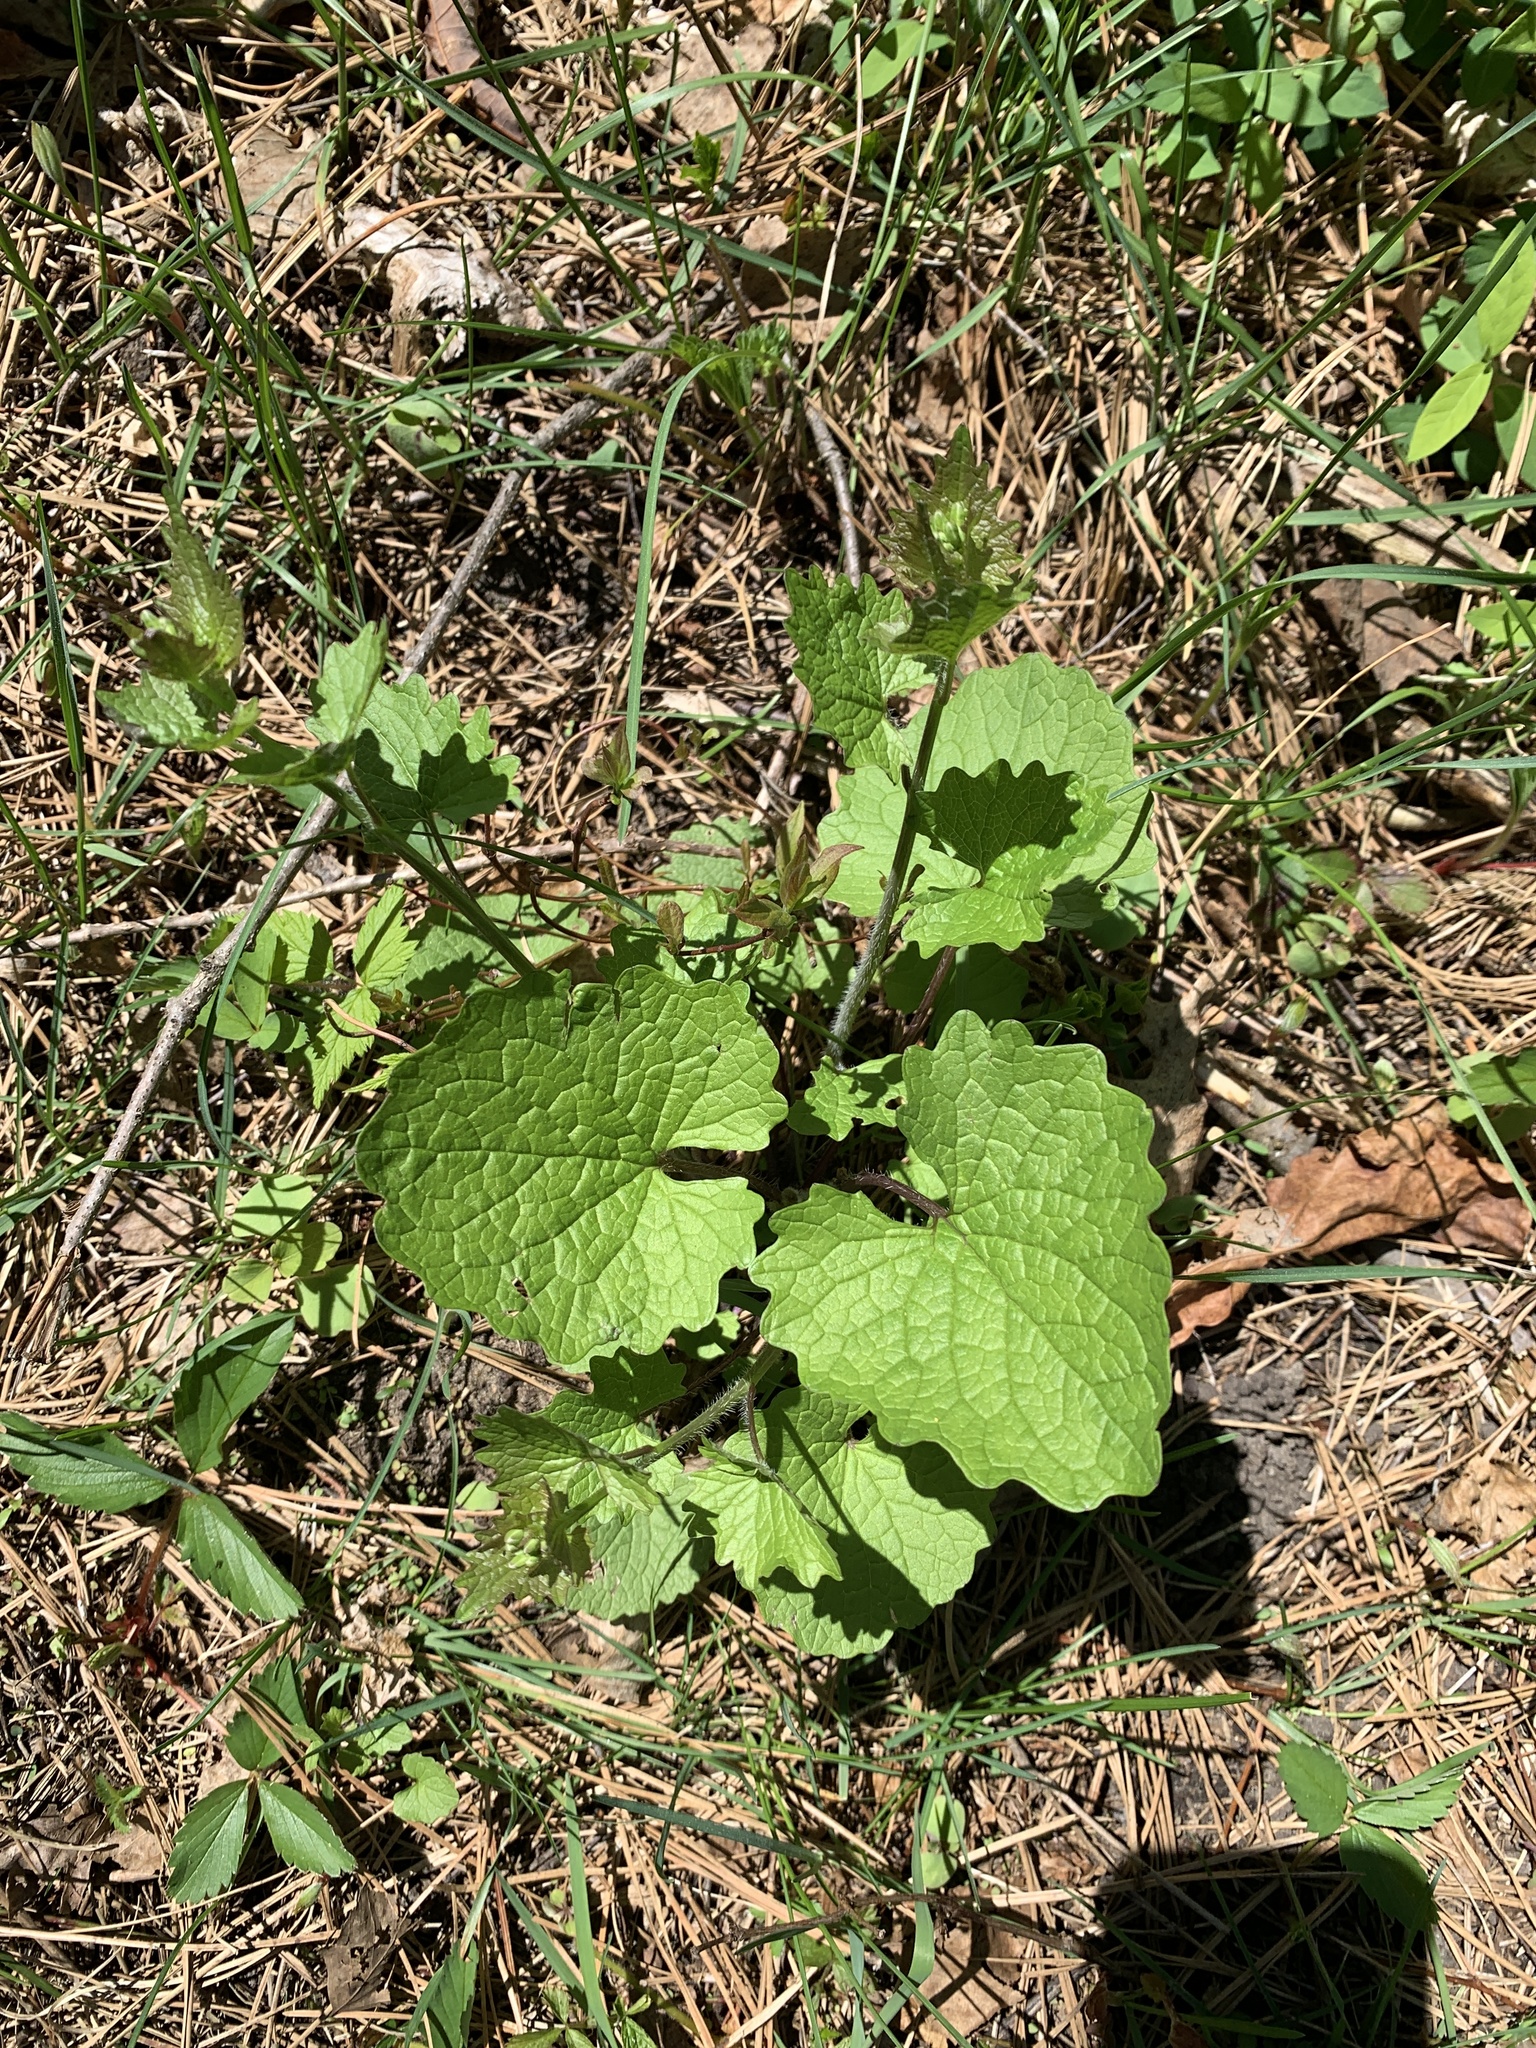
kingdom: Plantae
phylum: Tracheophyta
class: Magnoliopsida
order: Brassicales
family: Brassicaceae
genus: Alliaria
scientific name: Alliaria petiolata
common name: Garlic mustard
